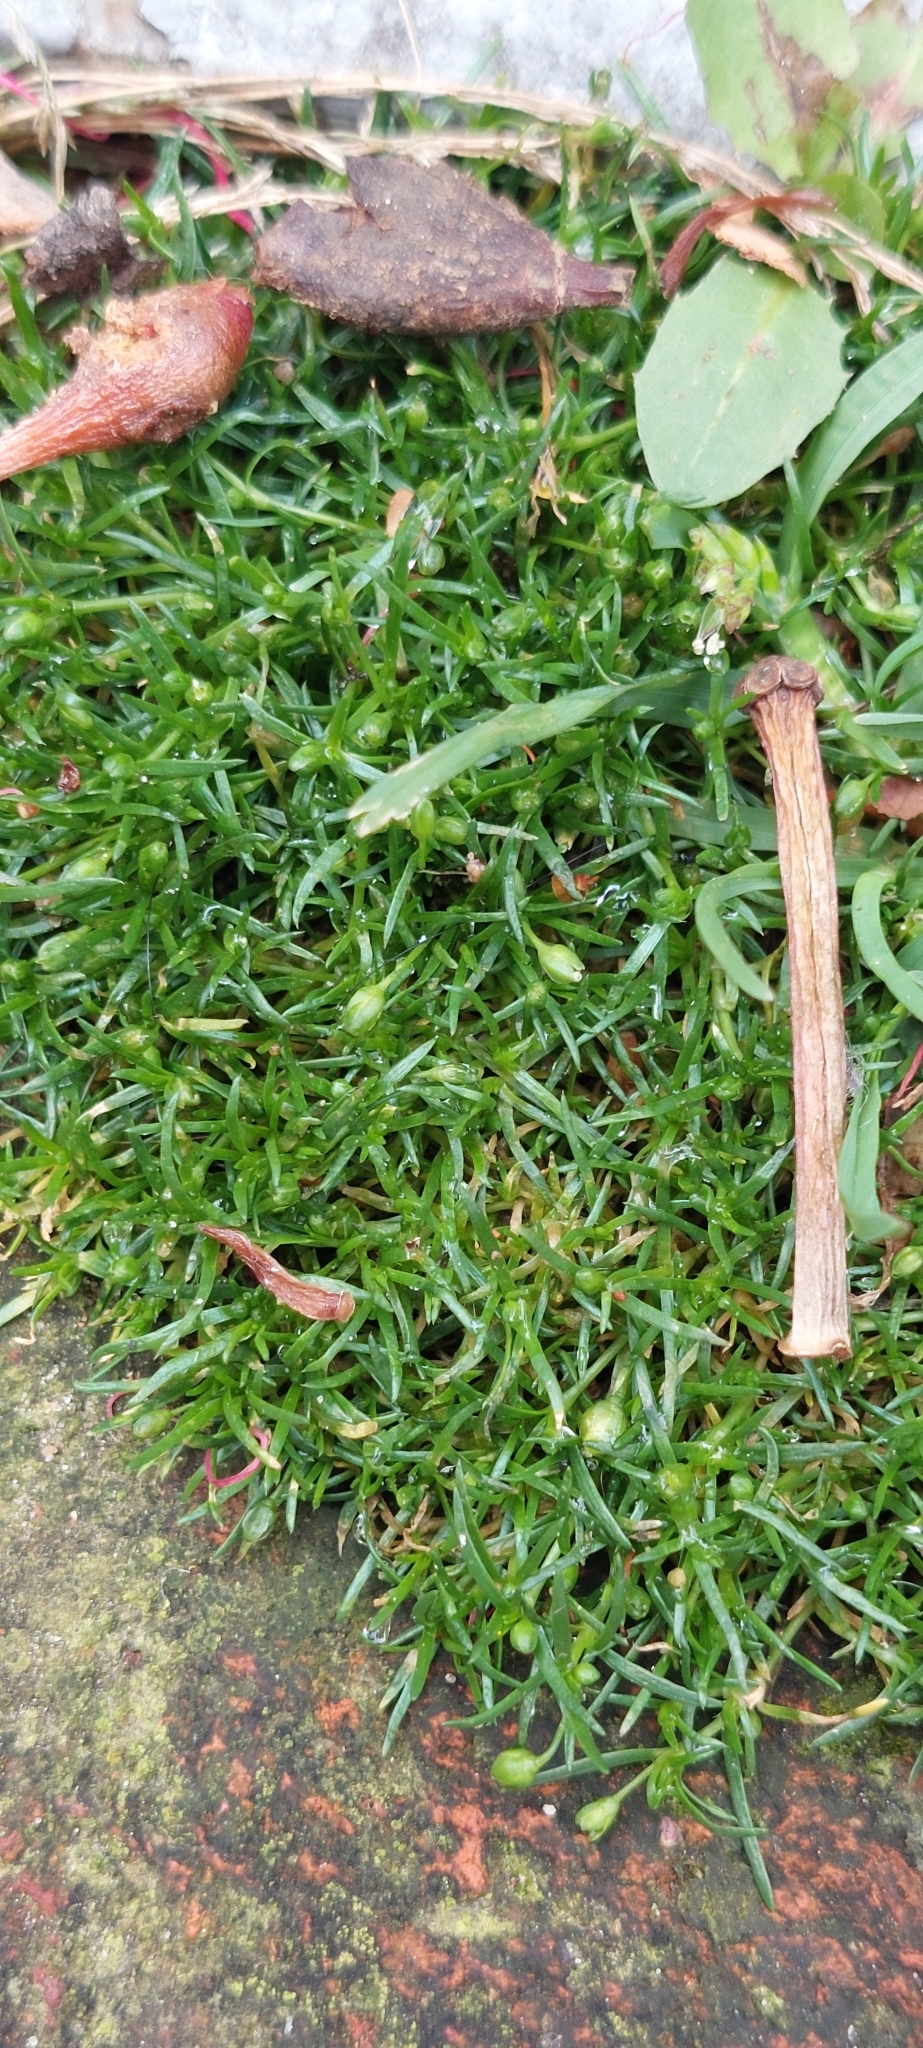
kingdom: Plantae
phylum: Tracheophyta
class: Magnoliopsida
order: Caryophyllales
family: Caryophyllaceae
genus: Sagina
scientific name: Sagina procumbens
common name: Procumbent pearlwort
